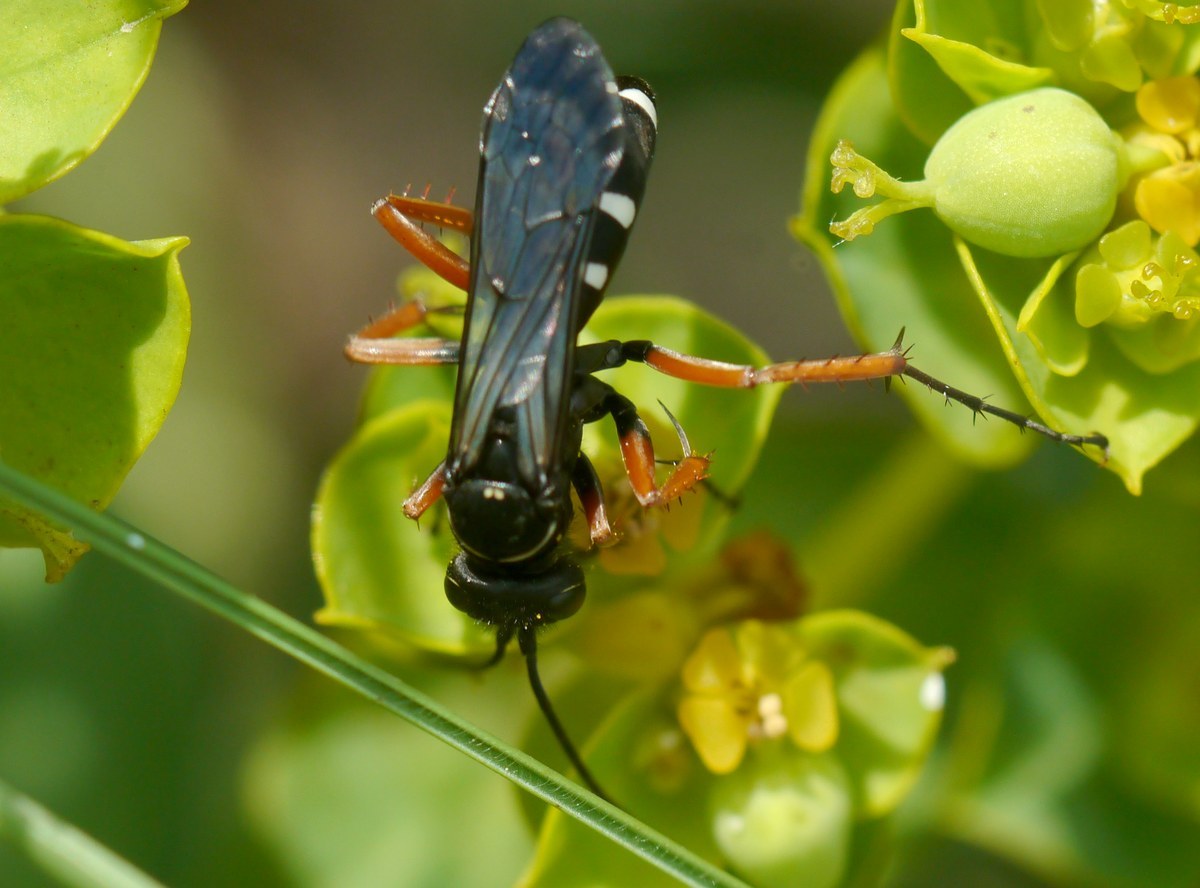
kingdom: Animalia
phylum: Arthropoda
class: Insecta
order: Hymenoptera
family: Pompilidae
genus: Episyron
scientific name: Episyron albonotatum
